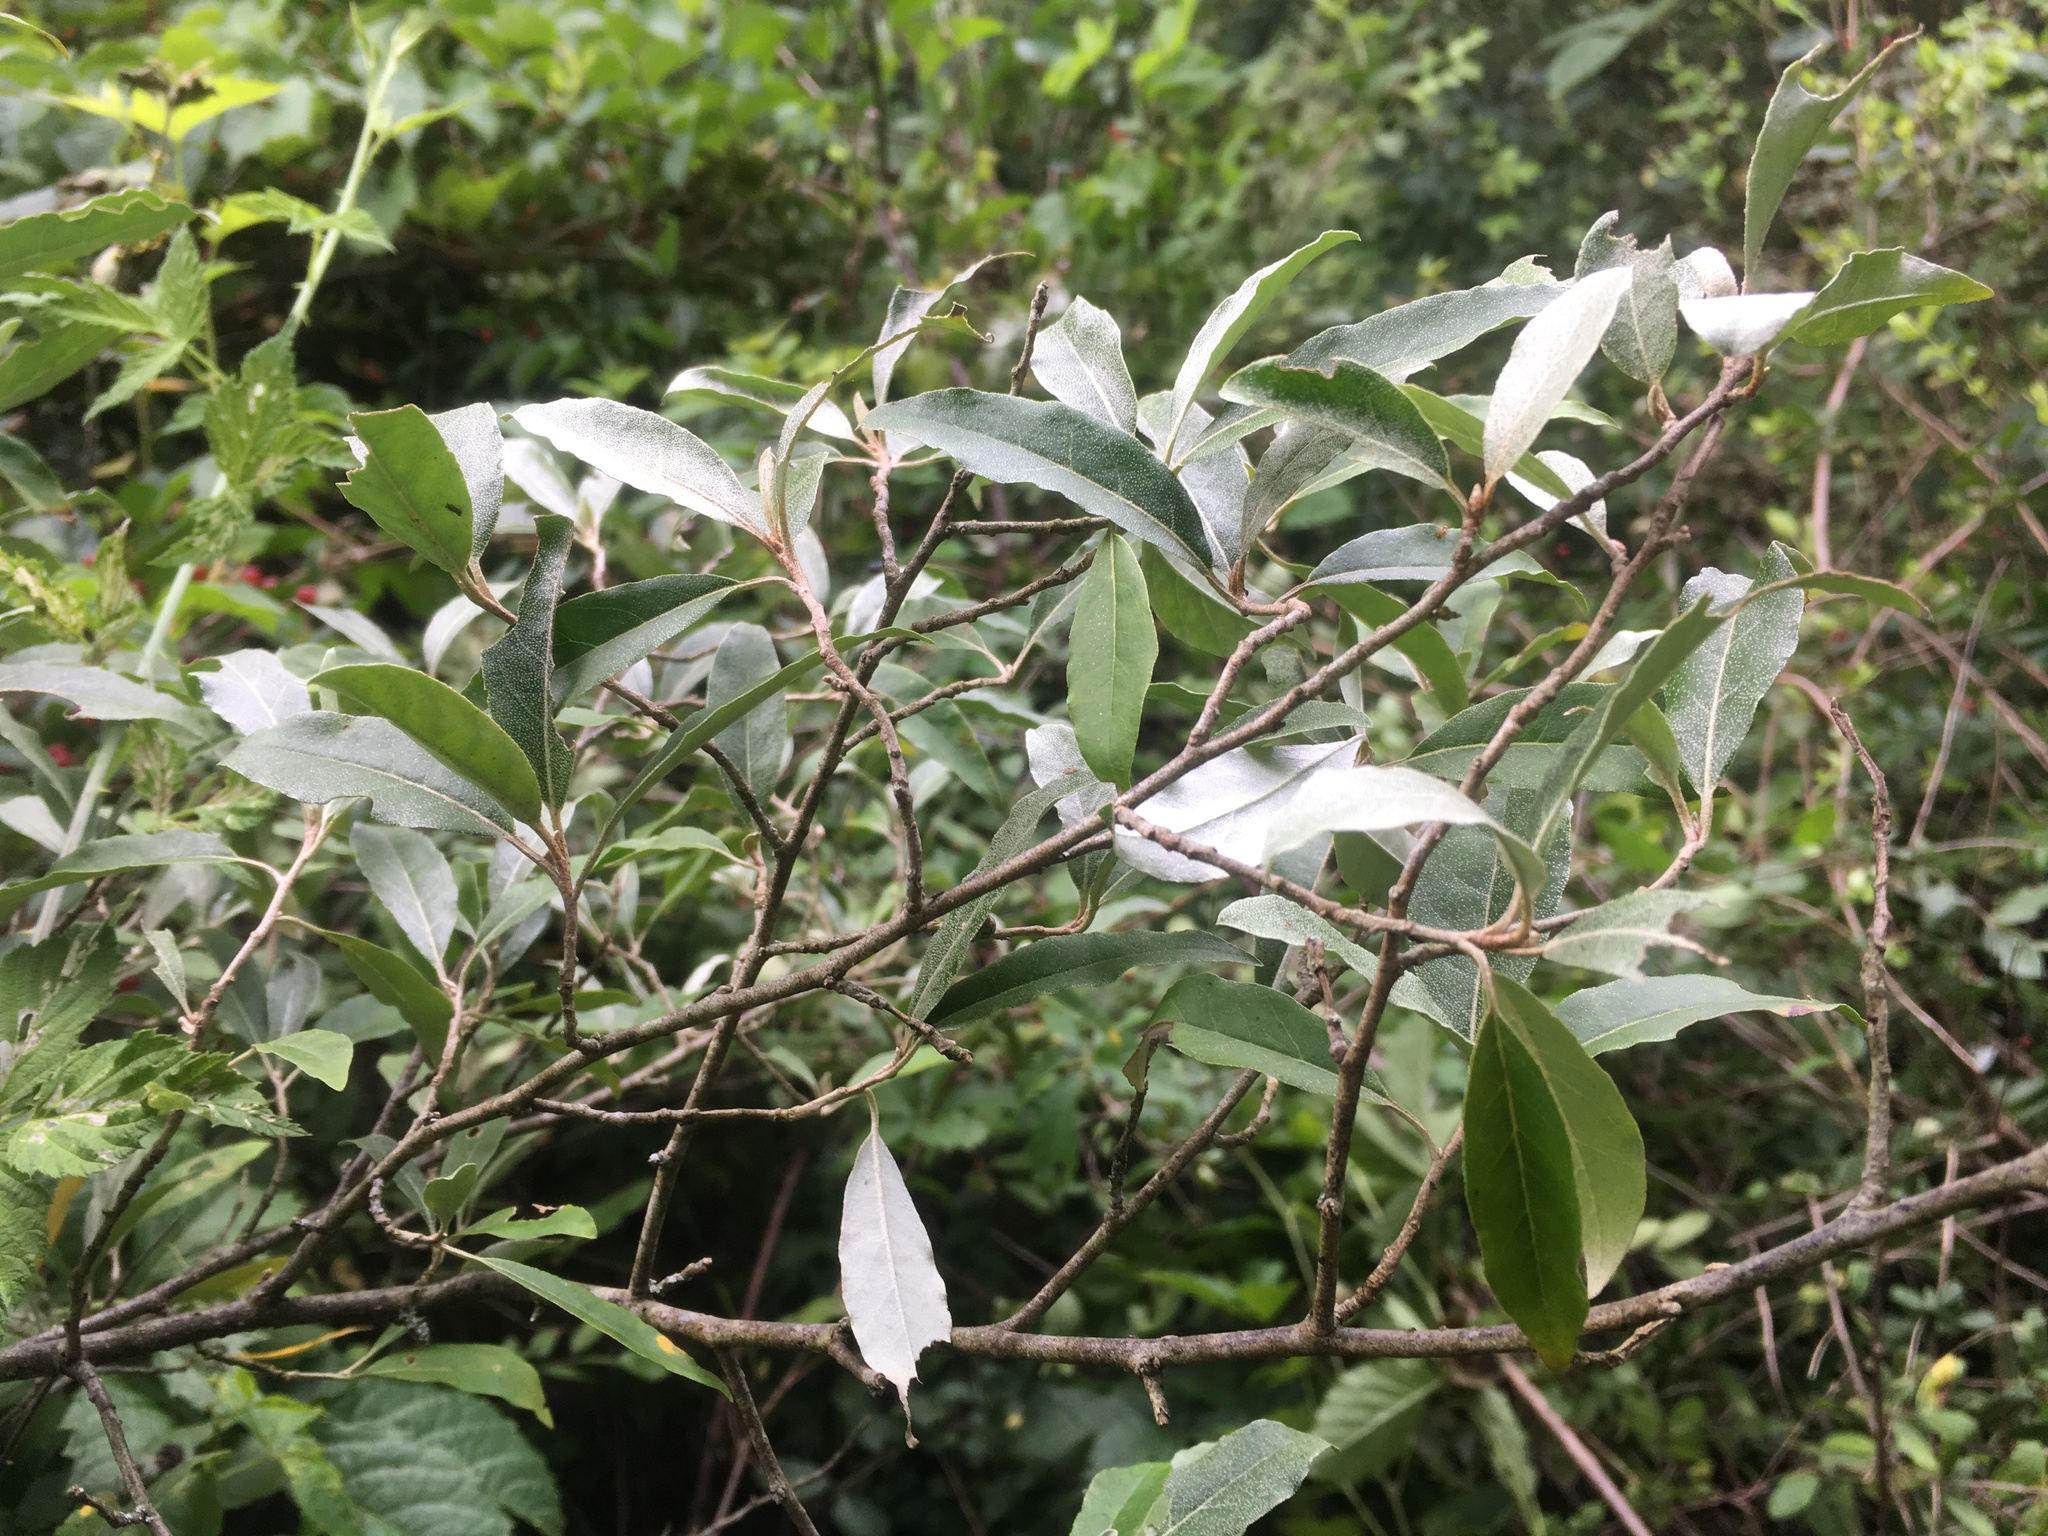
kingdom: Plantae
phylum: Tracheophyta
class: Magnoliopsida
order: Rosales
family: Elaeagnaceae
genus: Elaeagnus
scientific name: Elaeagnus umbellata
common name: Autumn olive
